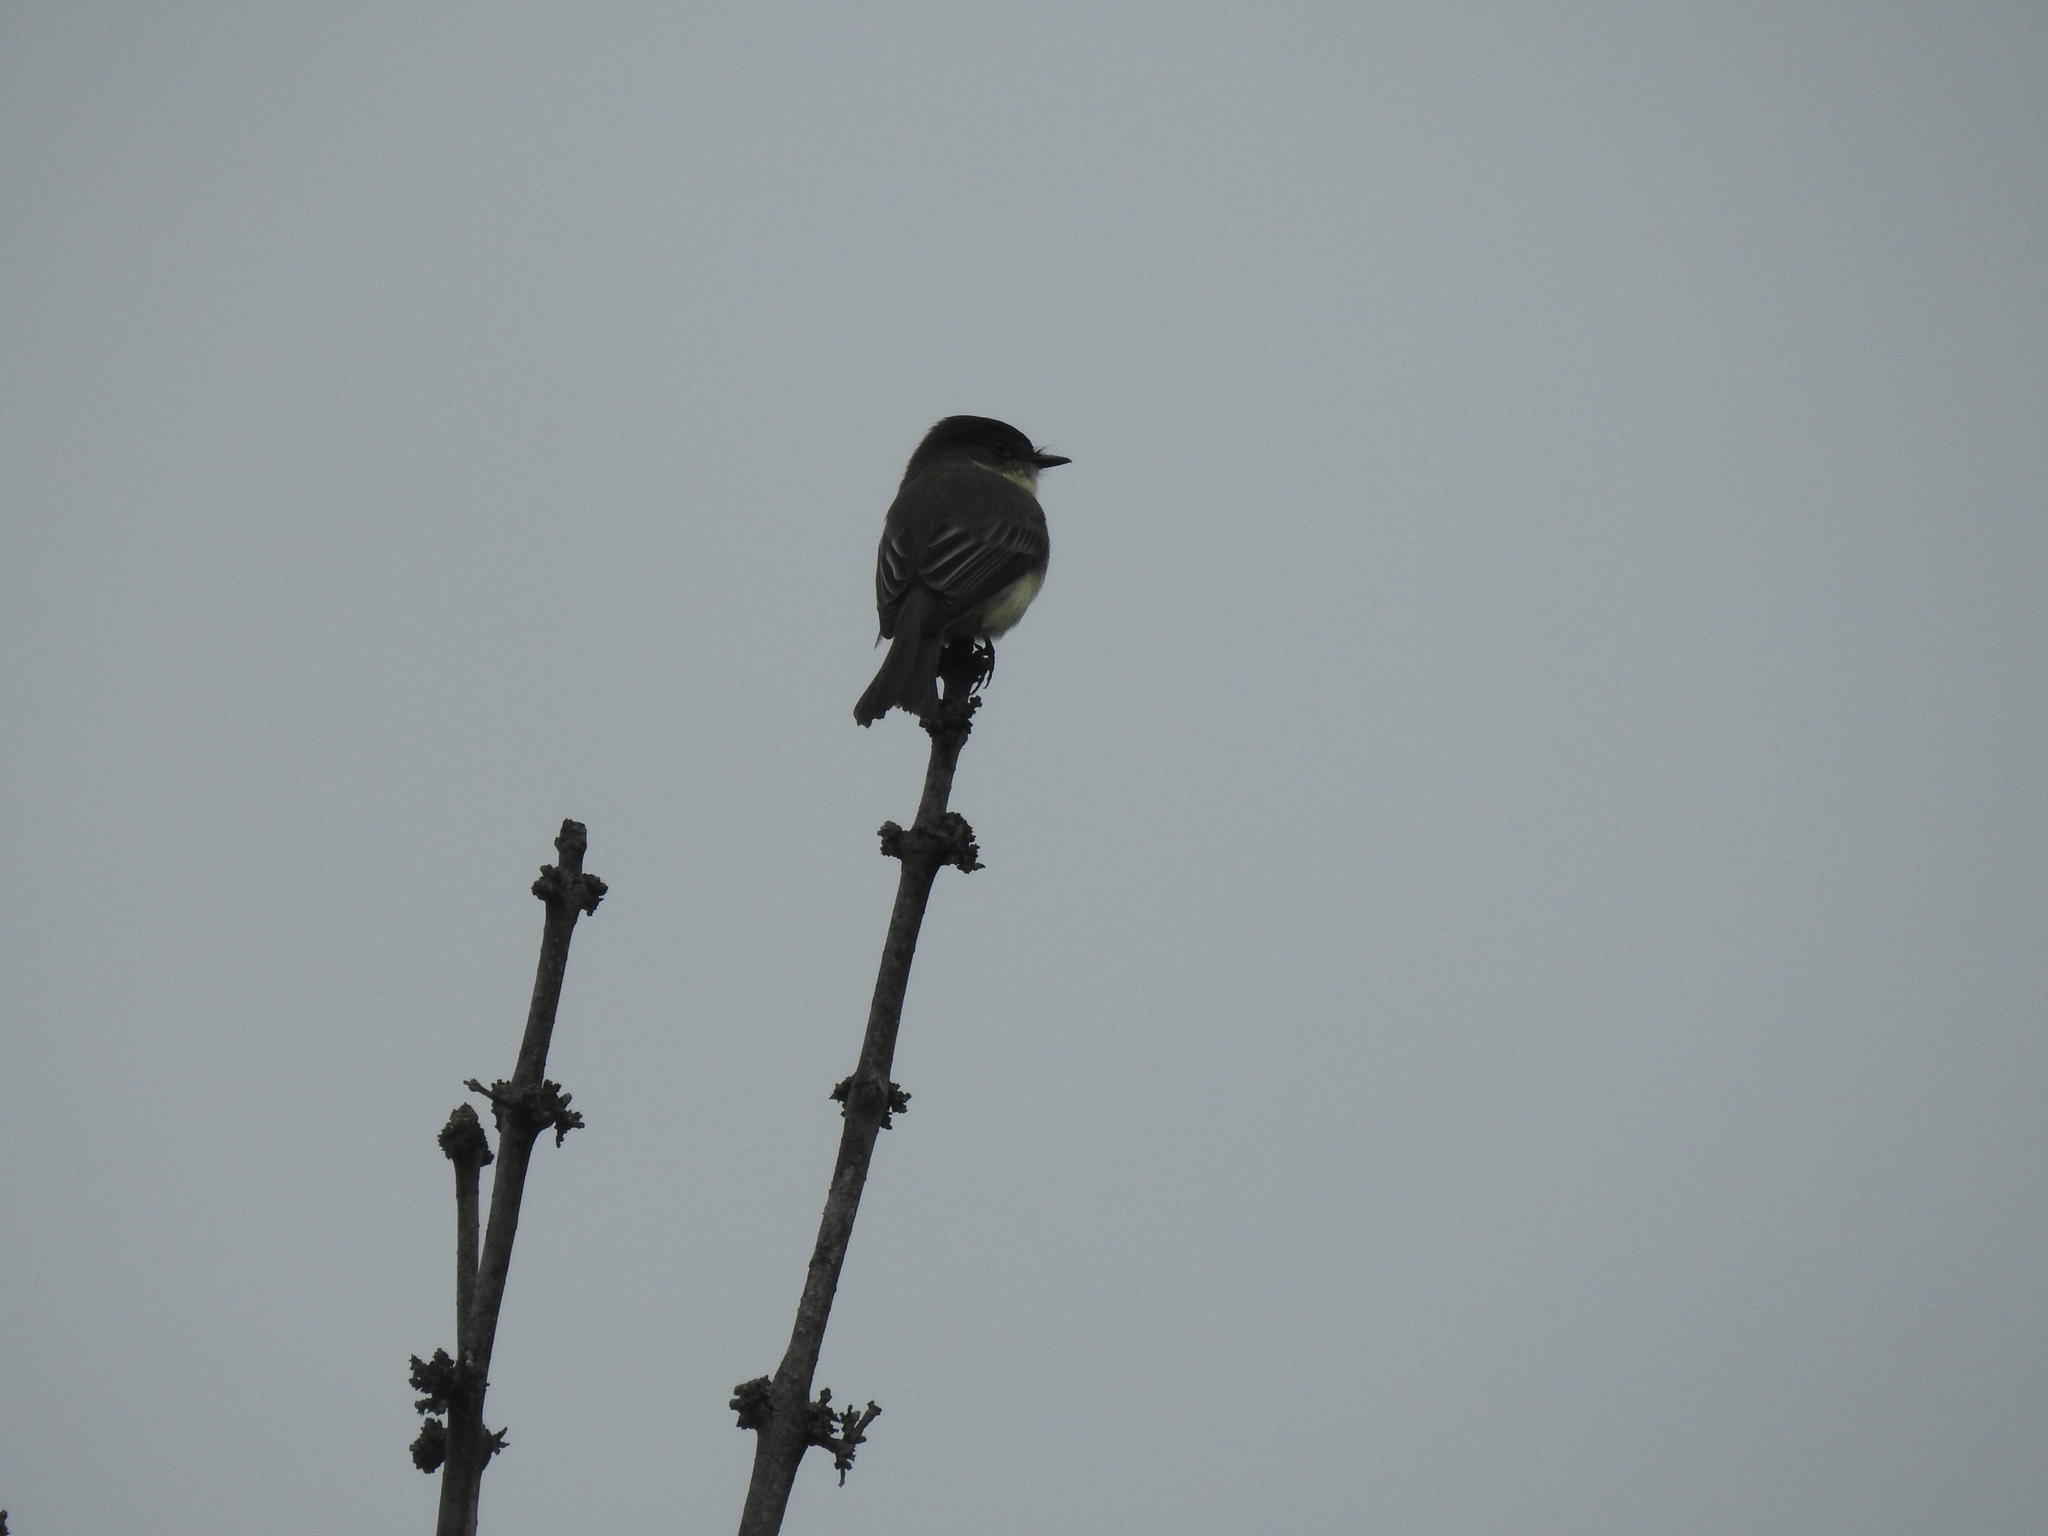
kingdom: Animalia
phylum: Chordata
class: Aves
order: Passeriformes
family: Tyrannidae
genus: Sayornis
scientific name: Sayornis phoebe
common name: Eastern phoebe
